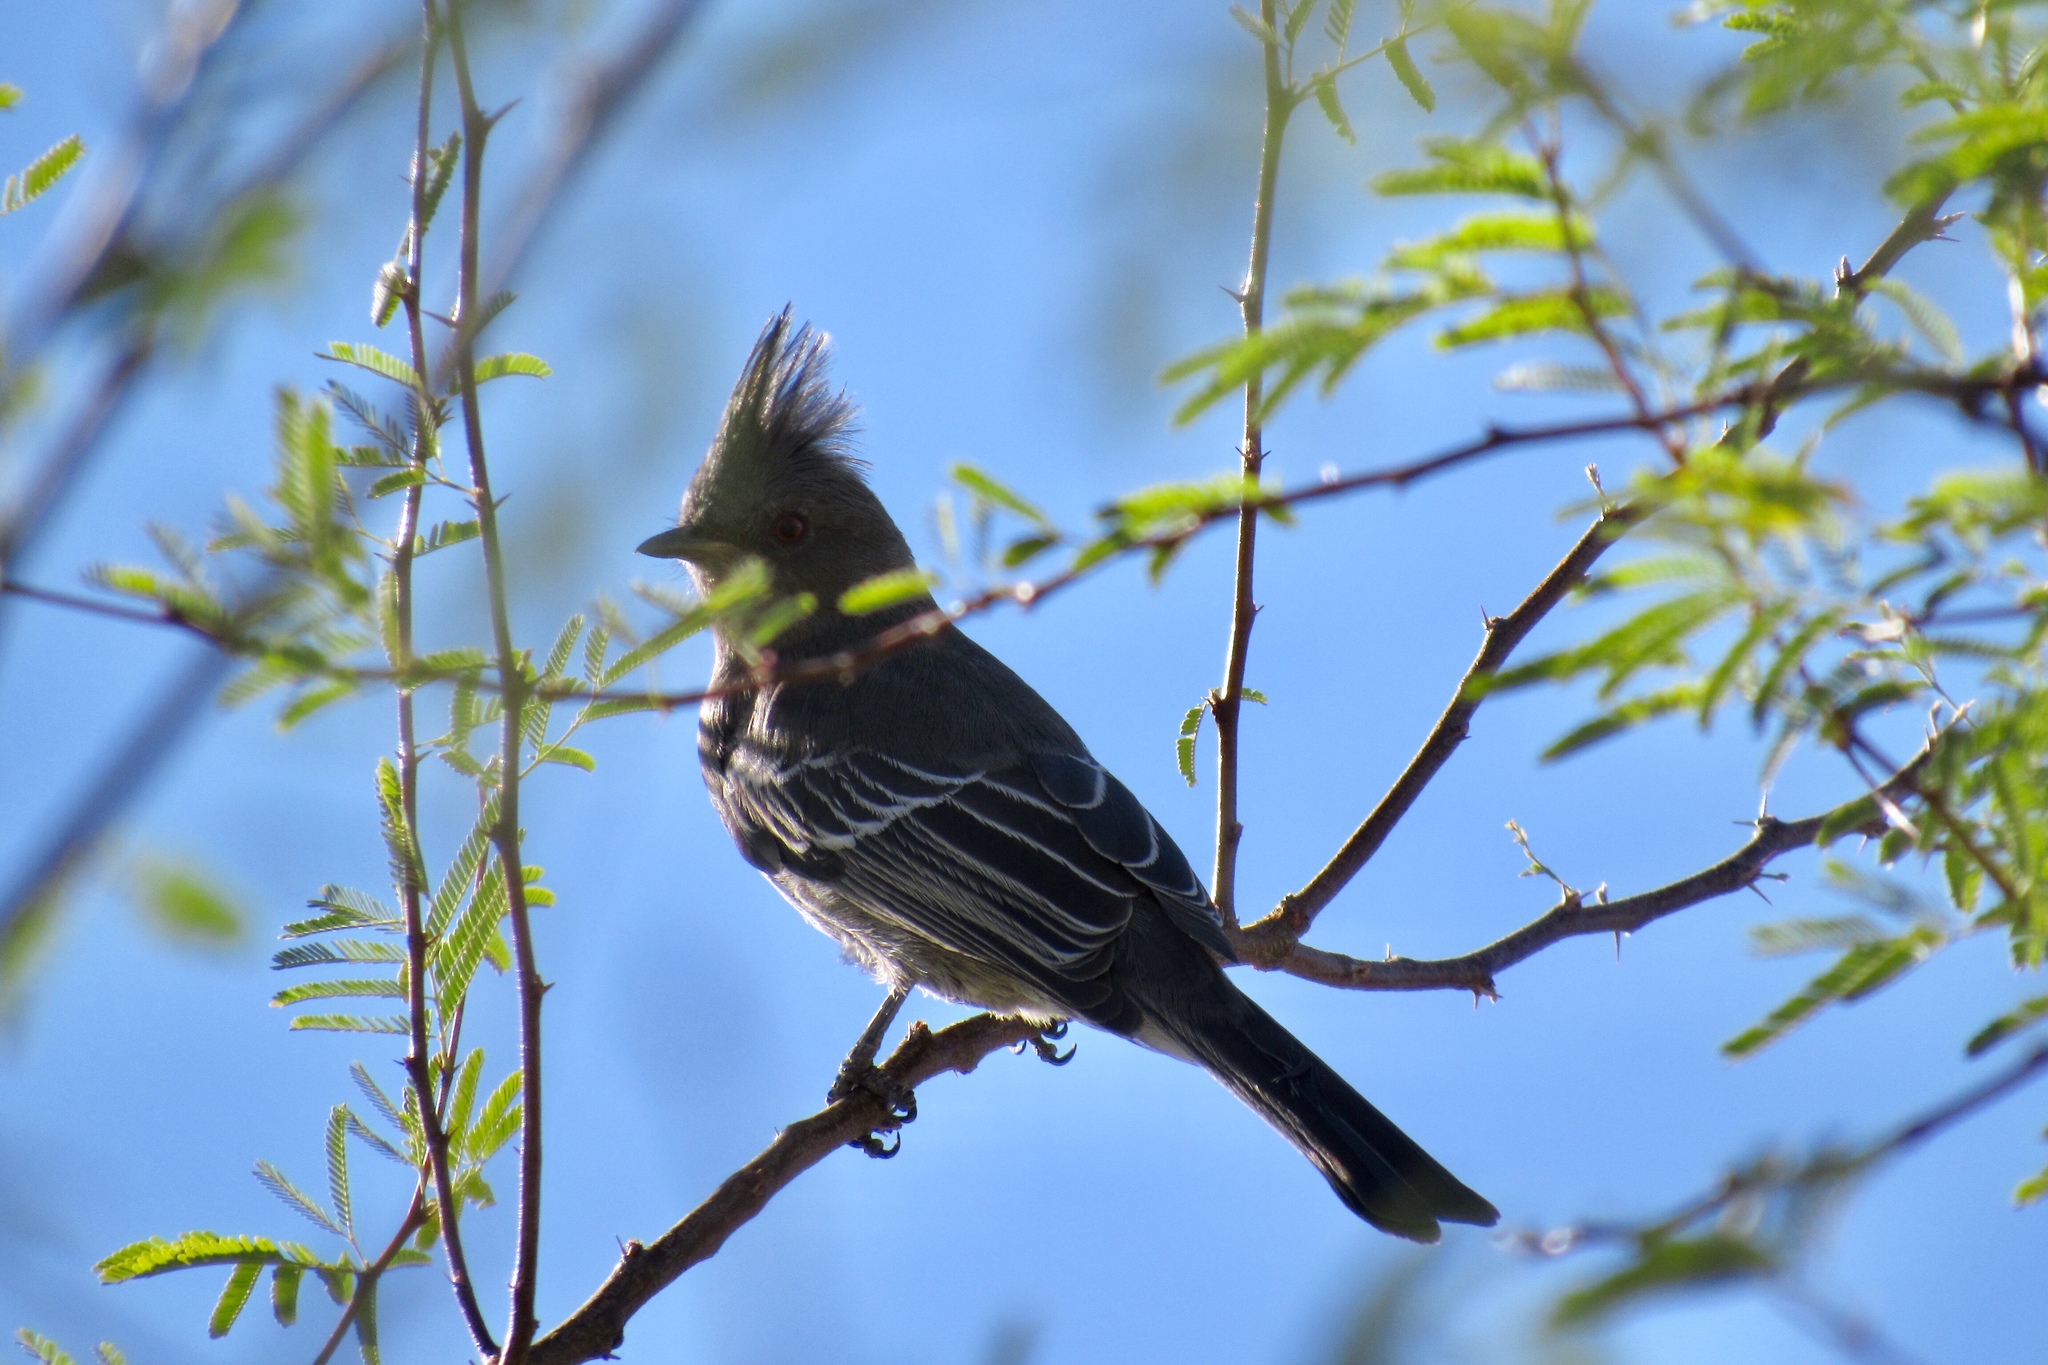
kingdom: Animalia
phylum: Chordata
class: Aves
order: Passeriformes
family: Ptilogonatidae
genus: Phainopepla
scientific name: Phainopepla nitens
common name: Phainopepla
